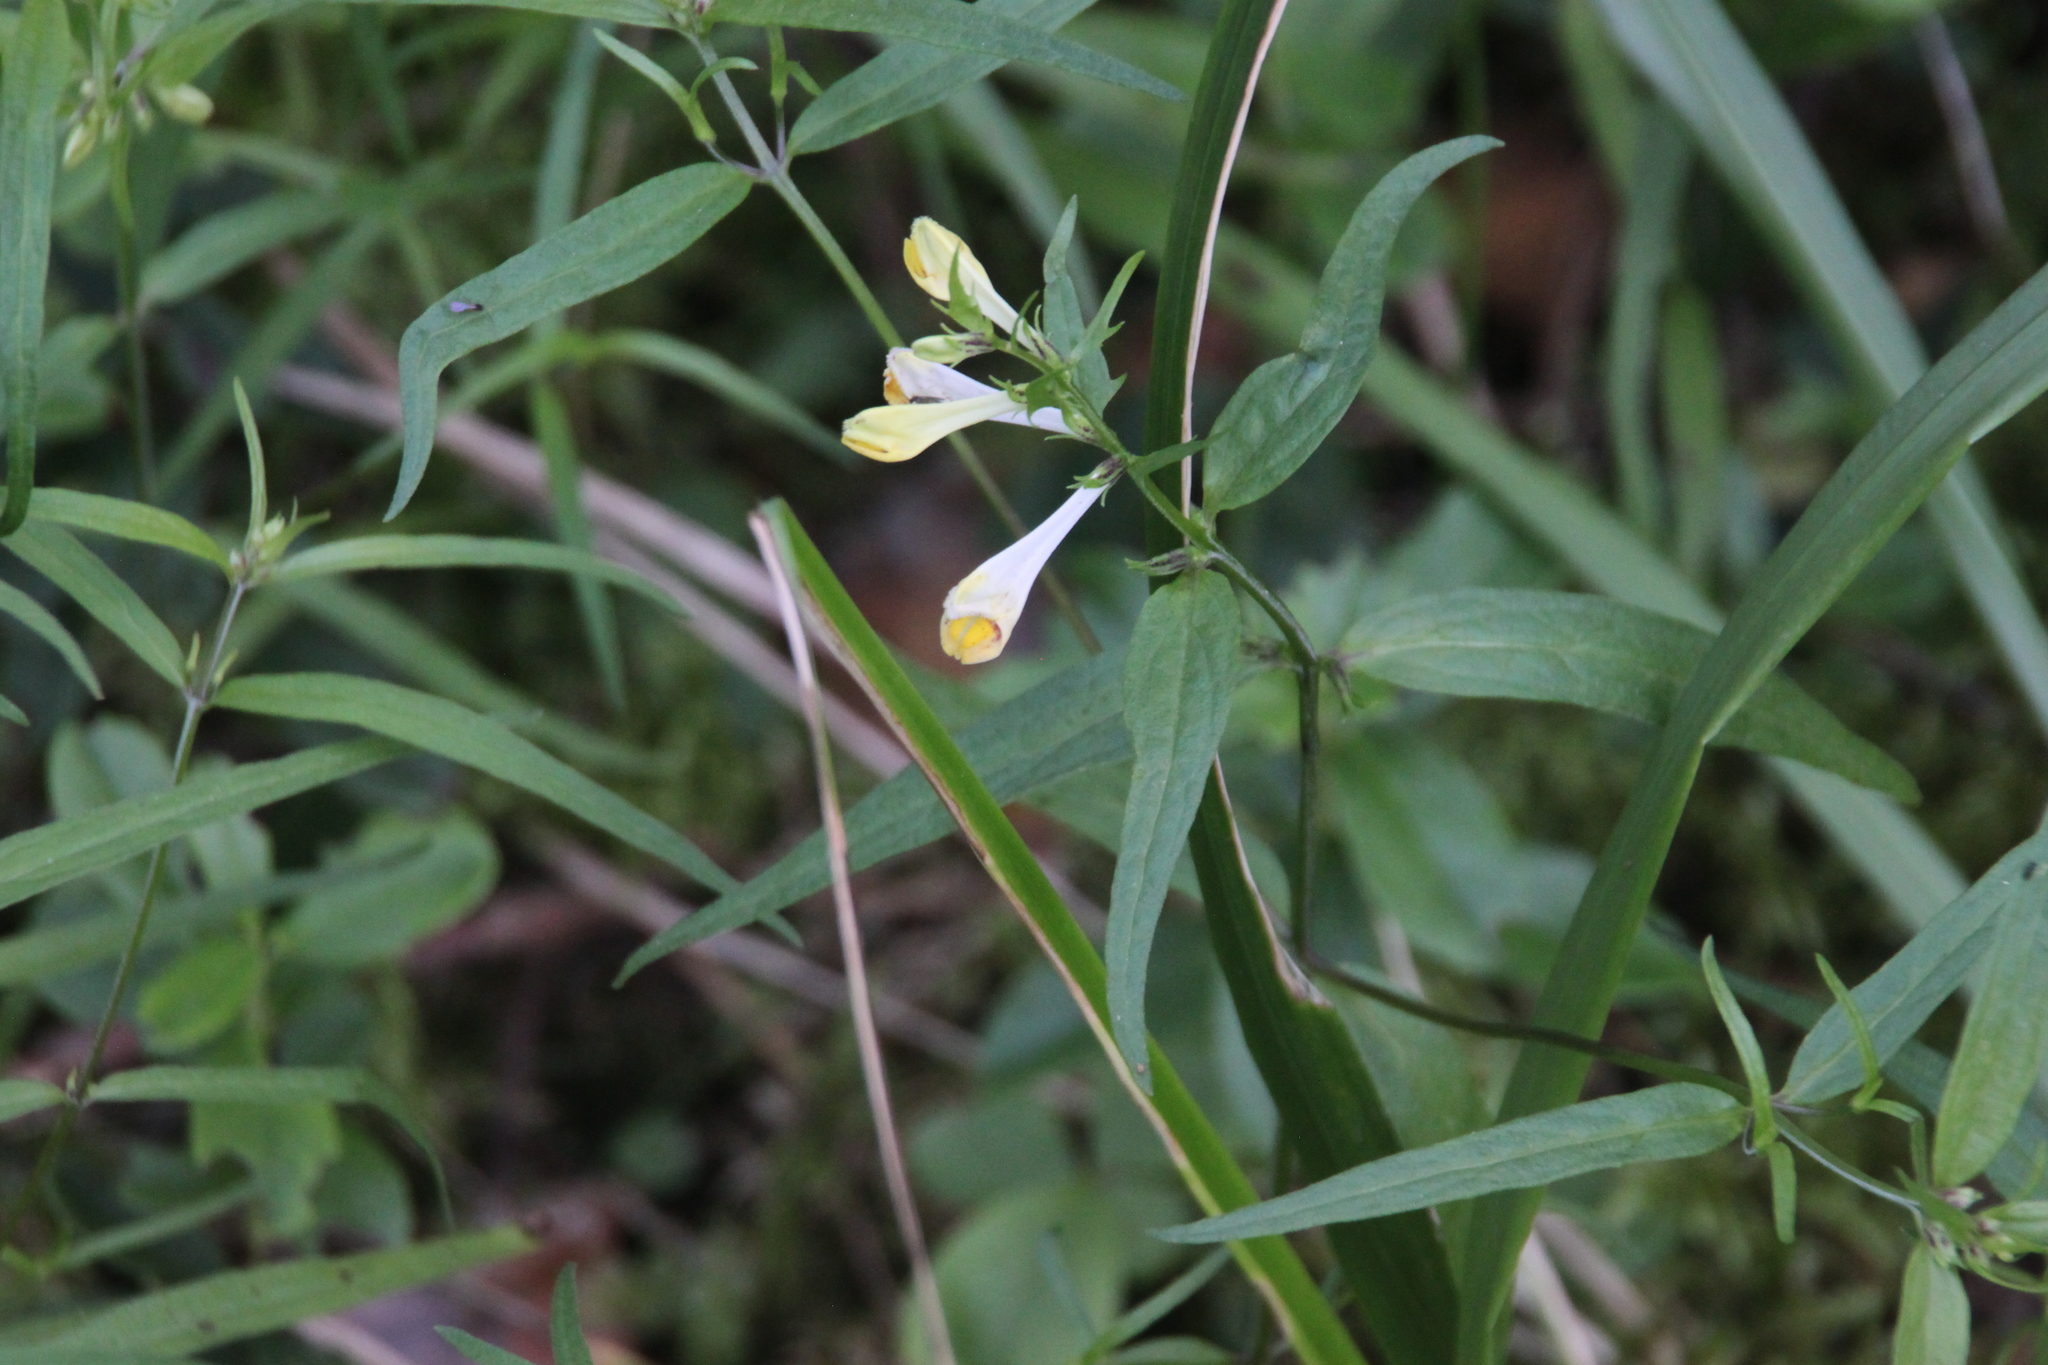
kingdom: Plantae
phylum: Tracheophyta
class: Magnoliopsida
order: Lamiales
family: Orobanchaceae
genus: Melampyrum
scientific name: Melampyrum pratense
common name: Common cow-wheat
